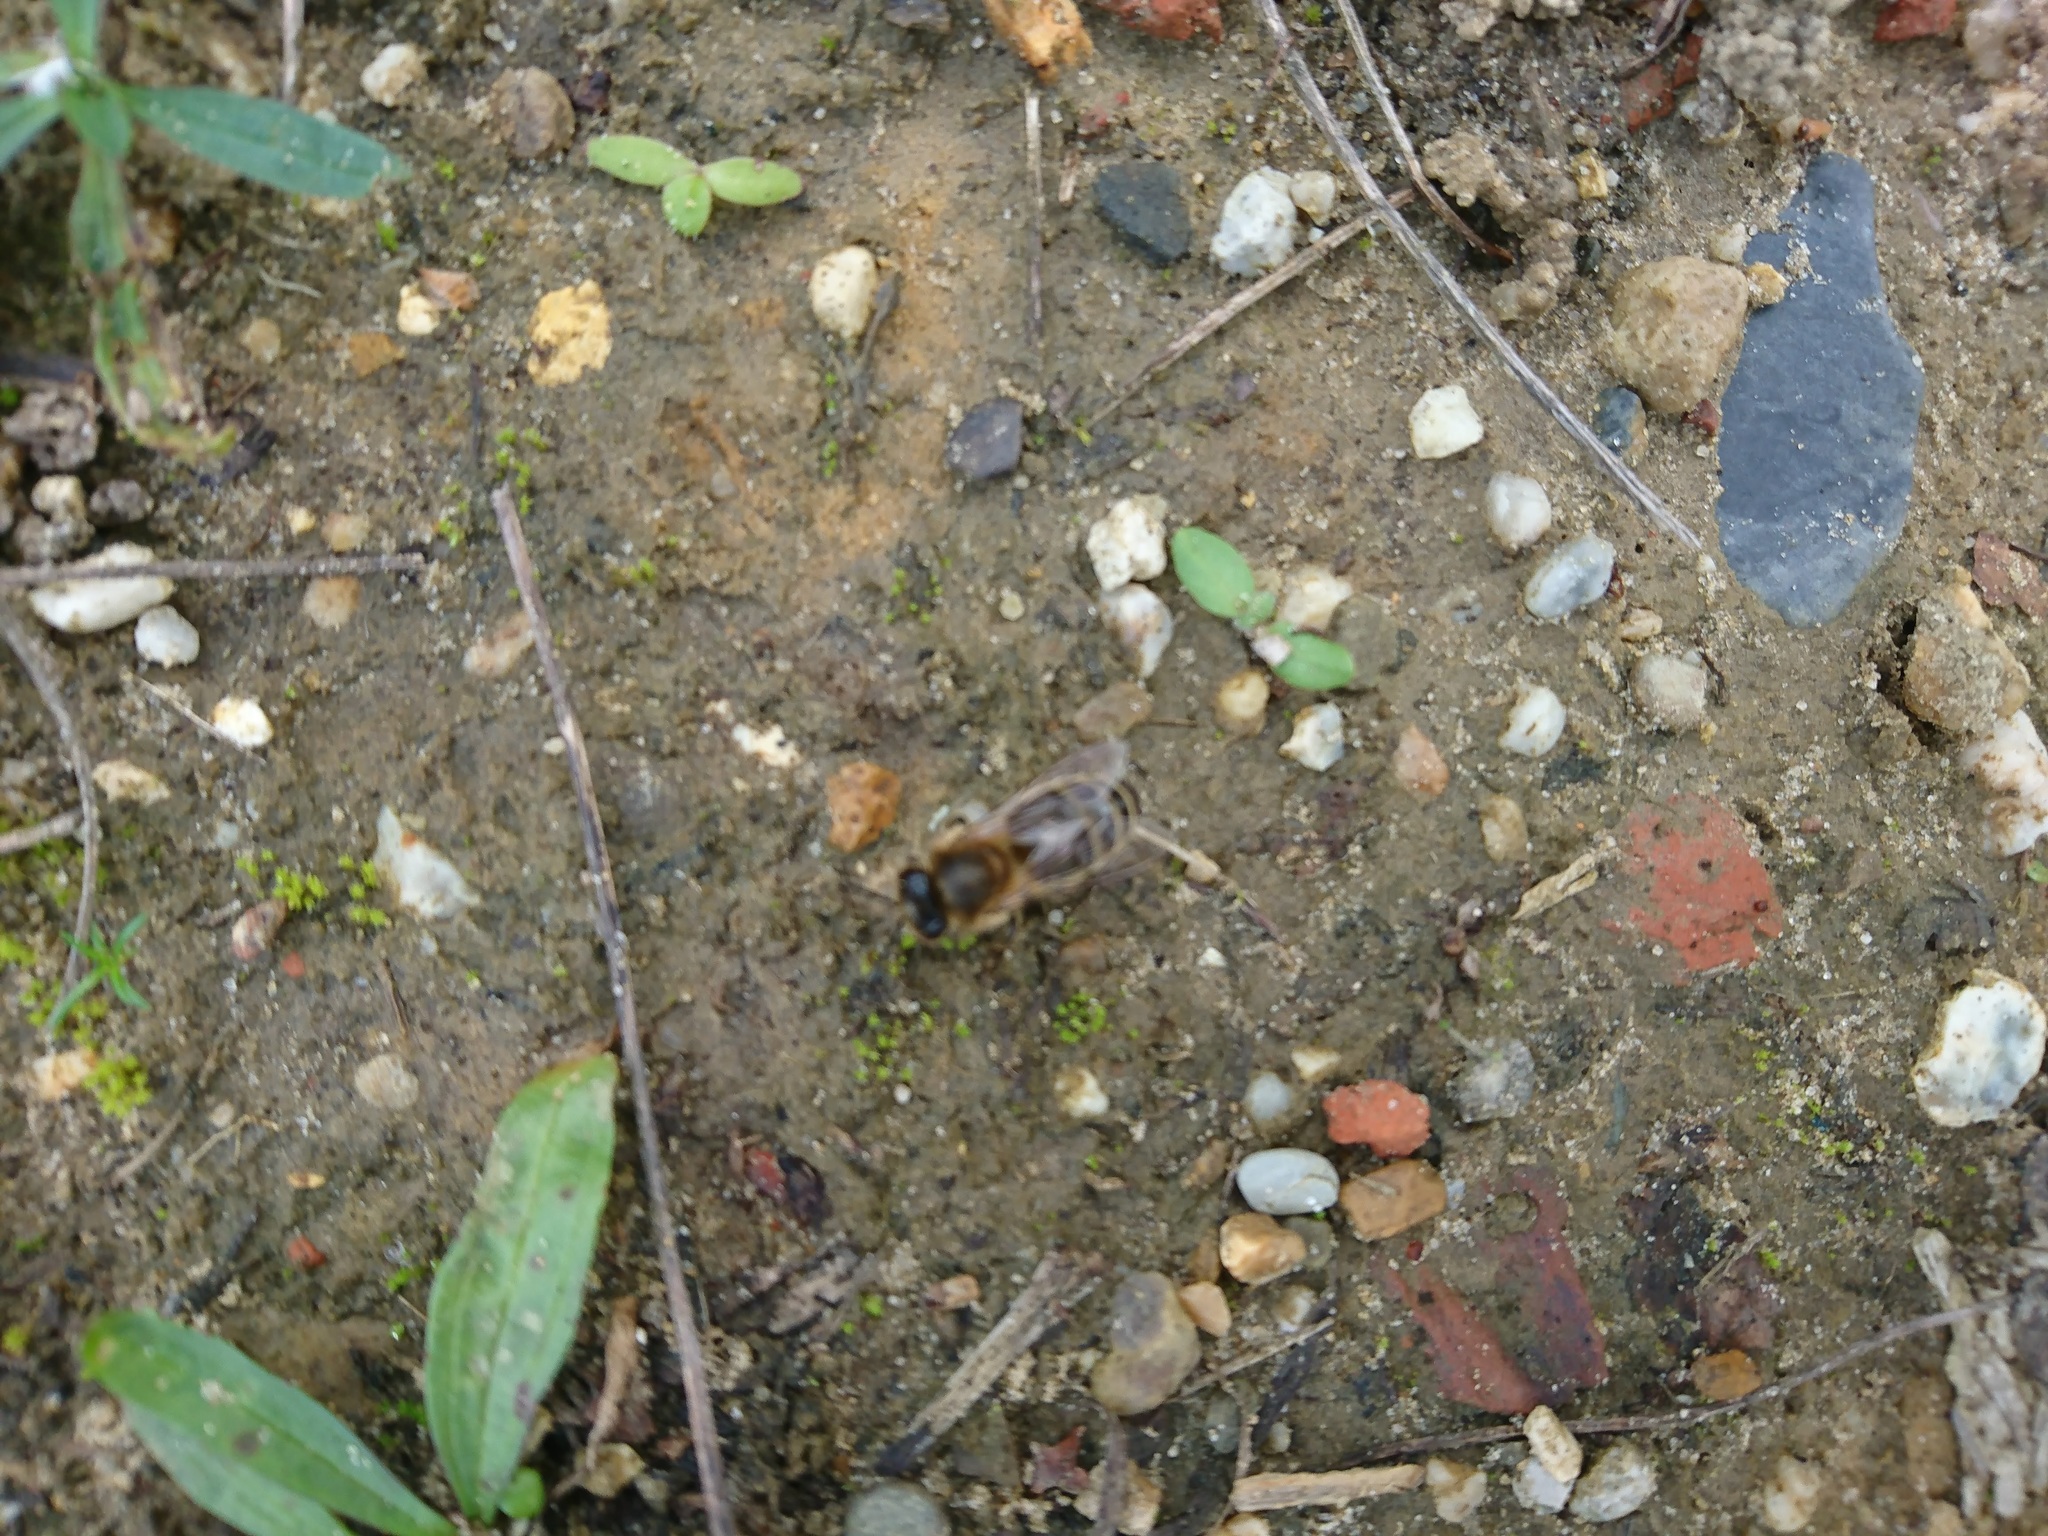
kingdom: Animalia
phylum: Arthropoda
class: Insecta
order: Hymenoptera
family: Apidae
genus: Apis
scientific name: Apis mellifera
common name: Honey bee
